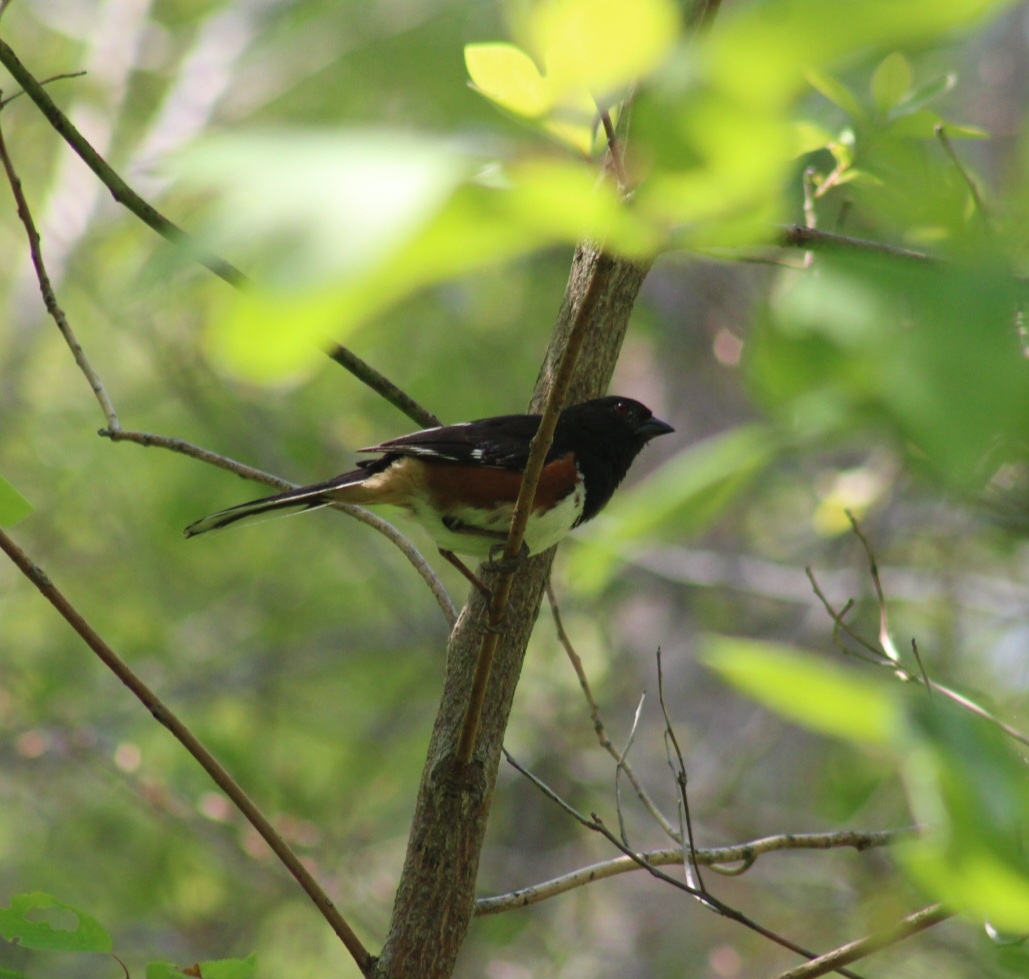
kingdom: Animalia
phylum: Chordata
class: Aves
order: Passeriformes
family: Passerellidae
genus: Pipilo
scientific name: Pipilo erythrophthalmus
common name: Eastern towhee
